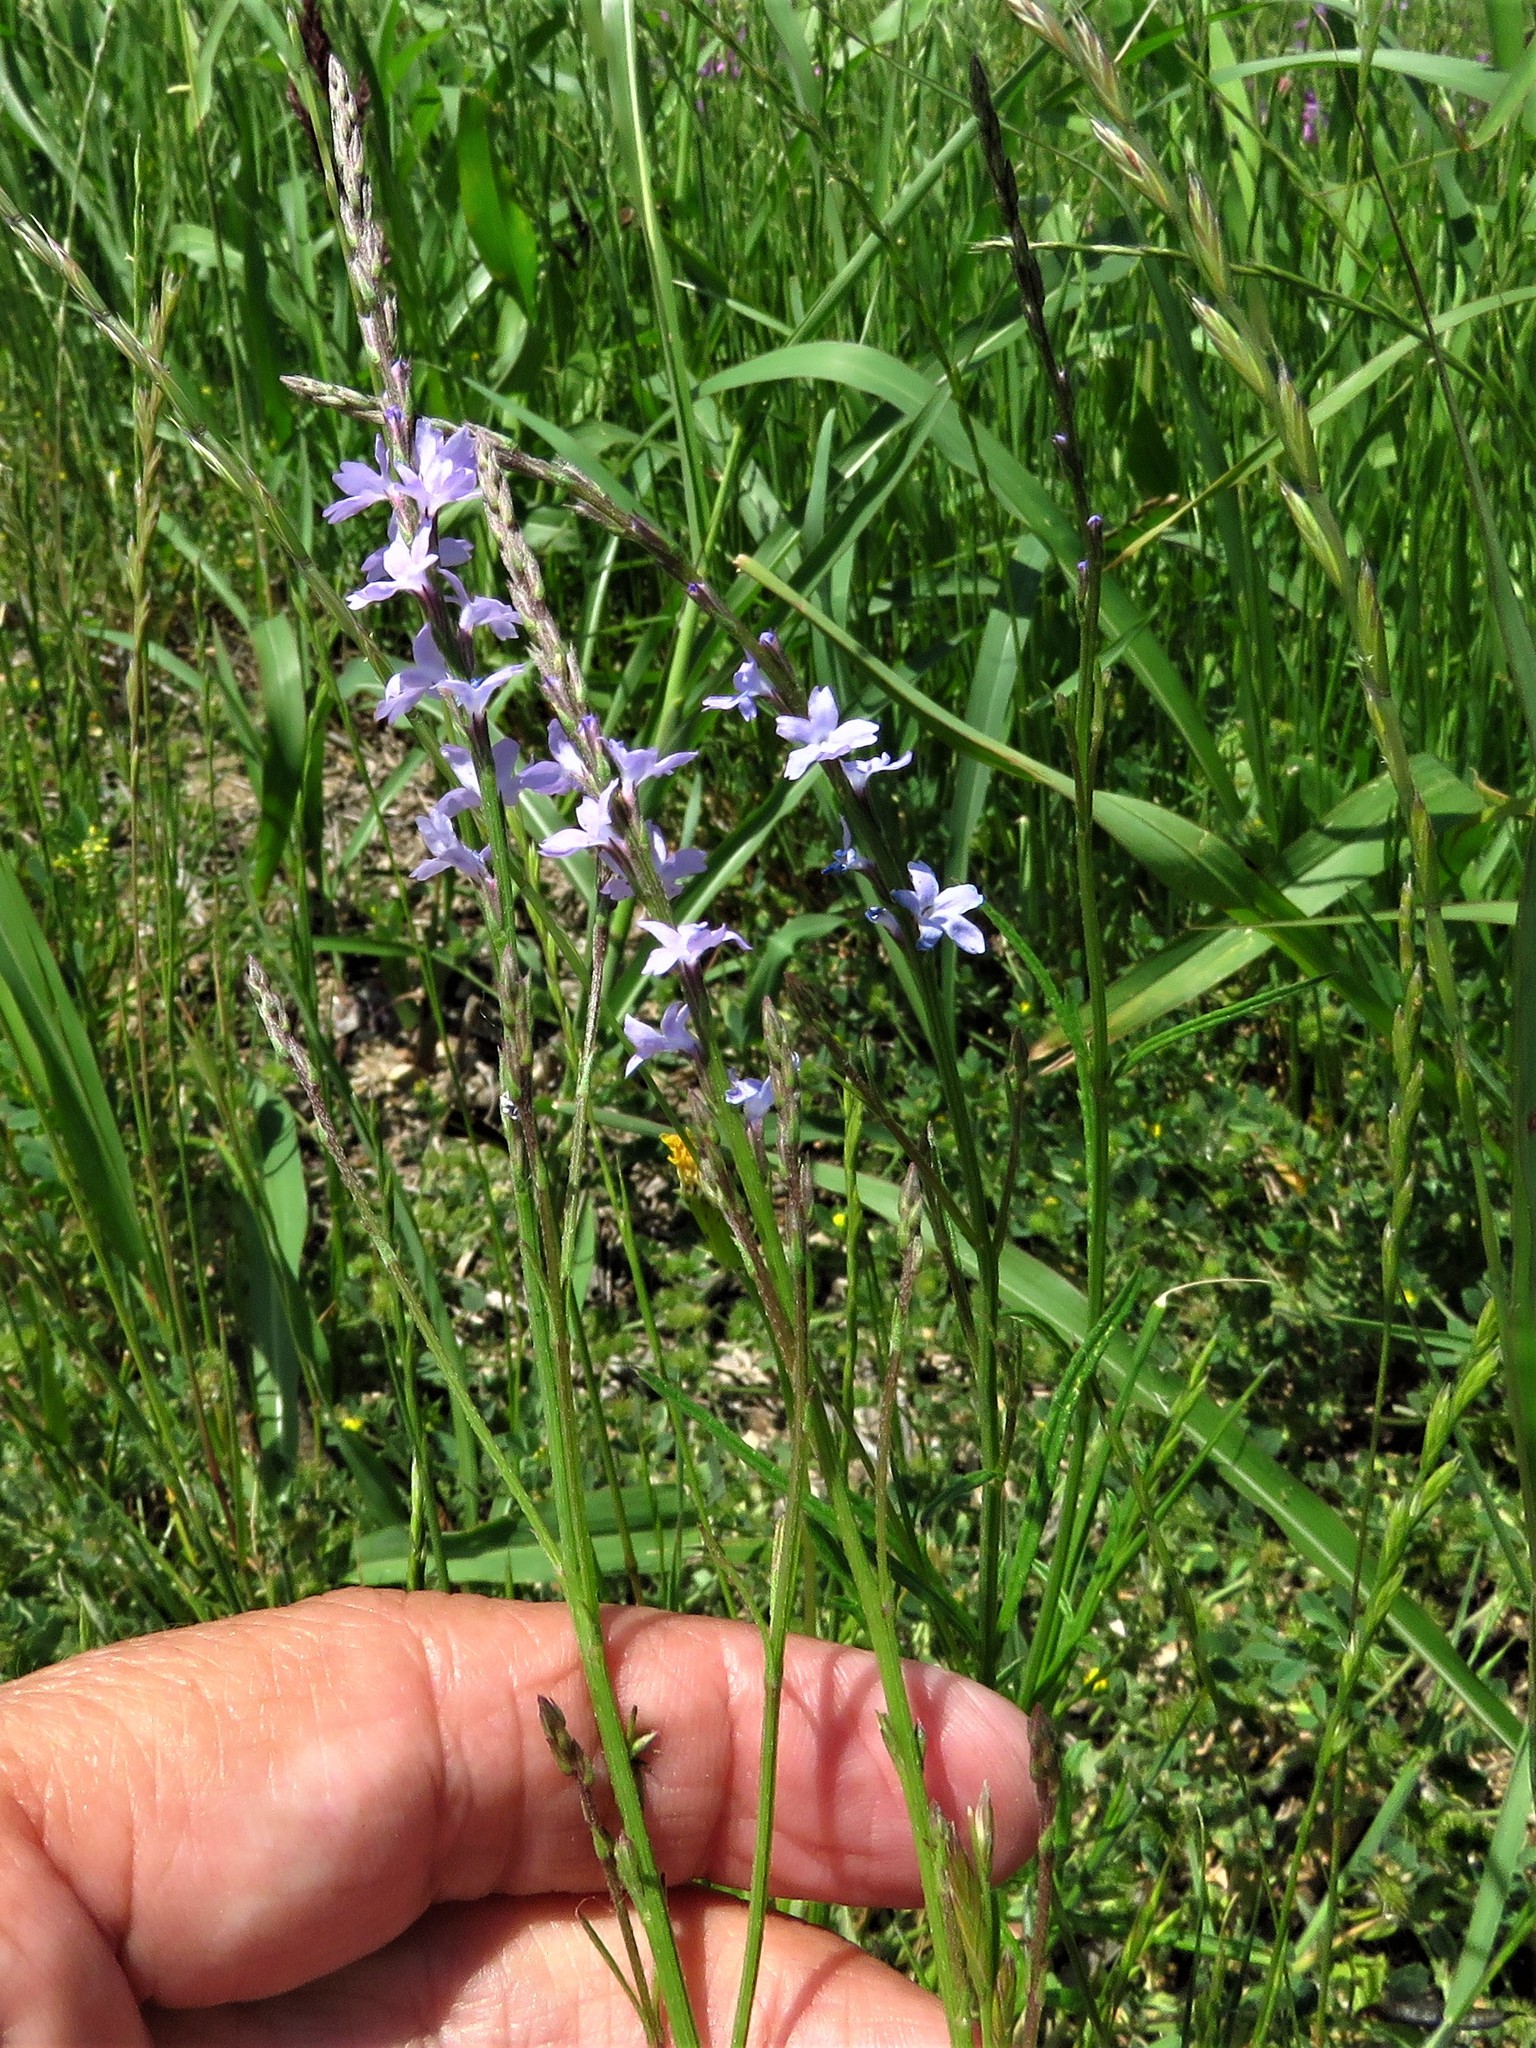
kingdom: Plantae
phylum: Tracheophyta
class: Magnoliopsida
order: Lamiales
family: Verbenaceae
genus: Verbena
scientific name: Verbena halei
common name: Texas vervain
